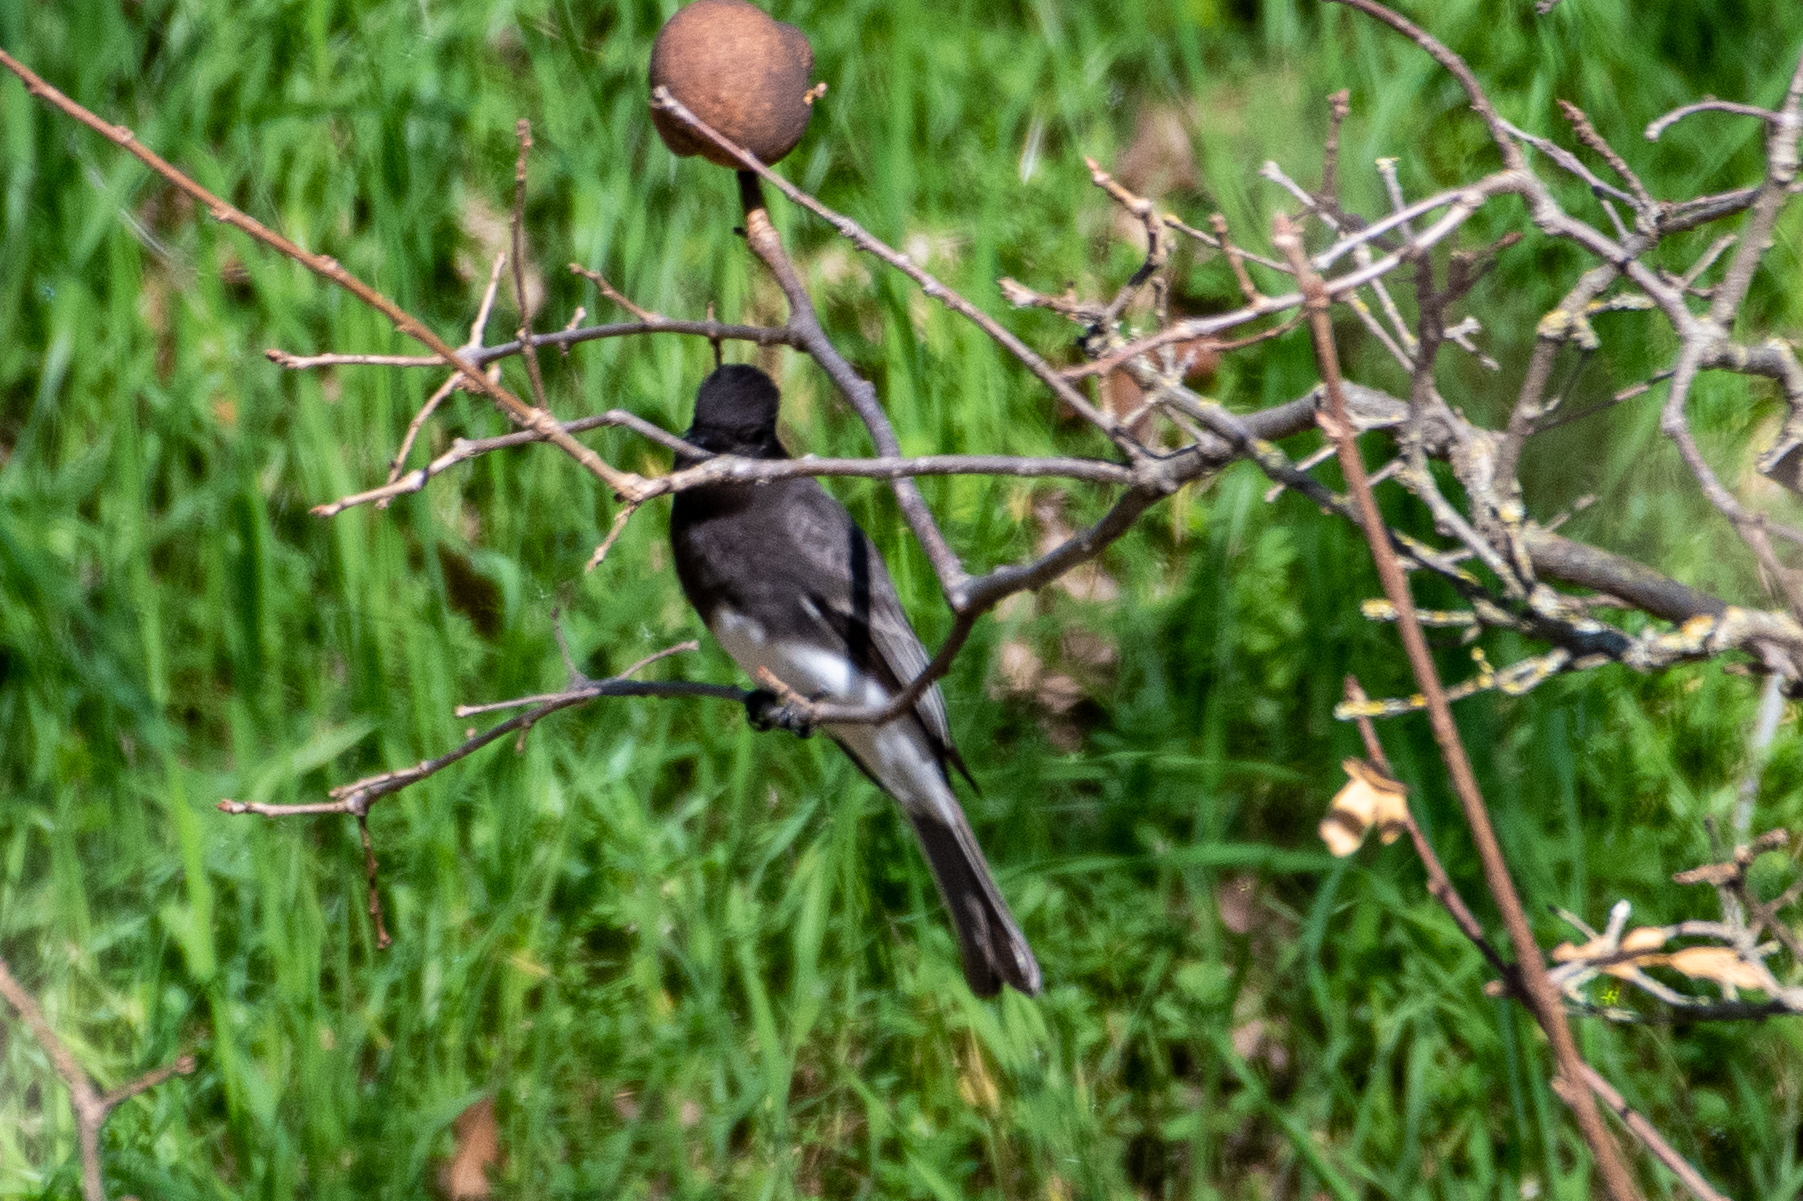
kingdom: Animalia
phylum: Chordata
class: Aves
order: Passeriformes
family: Tyrannidae
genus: Sayornis
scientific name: Sayornis nigricans
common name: Black phoebe
